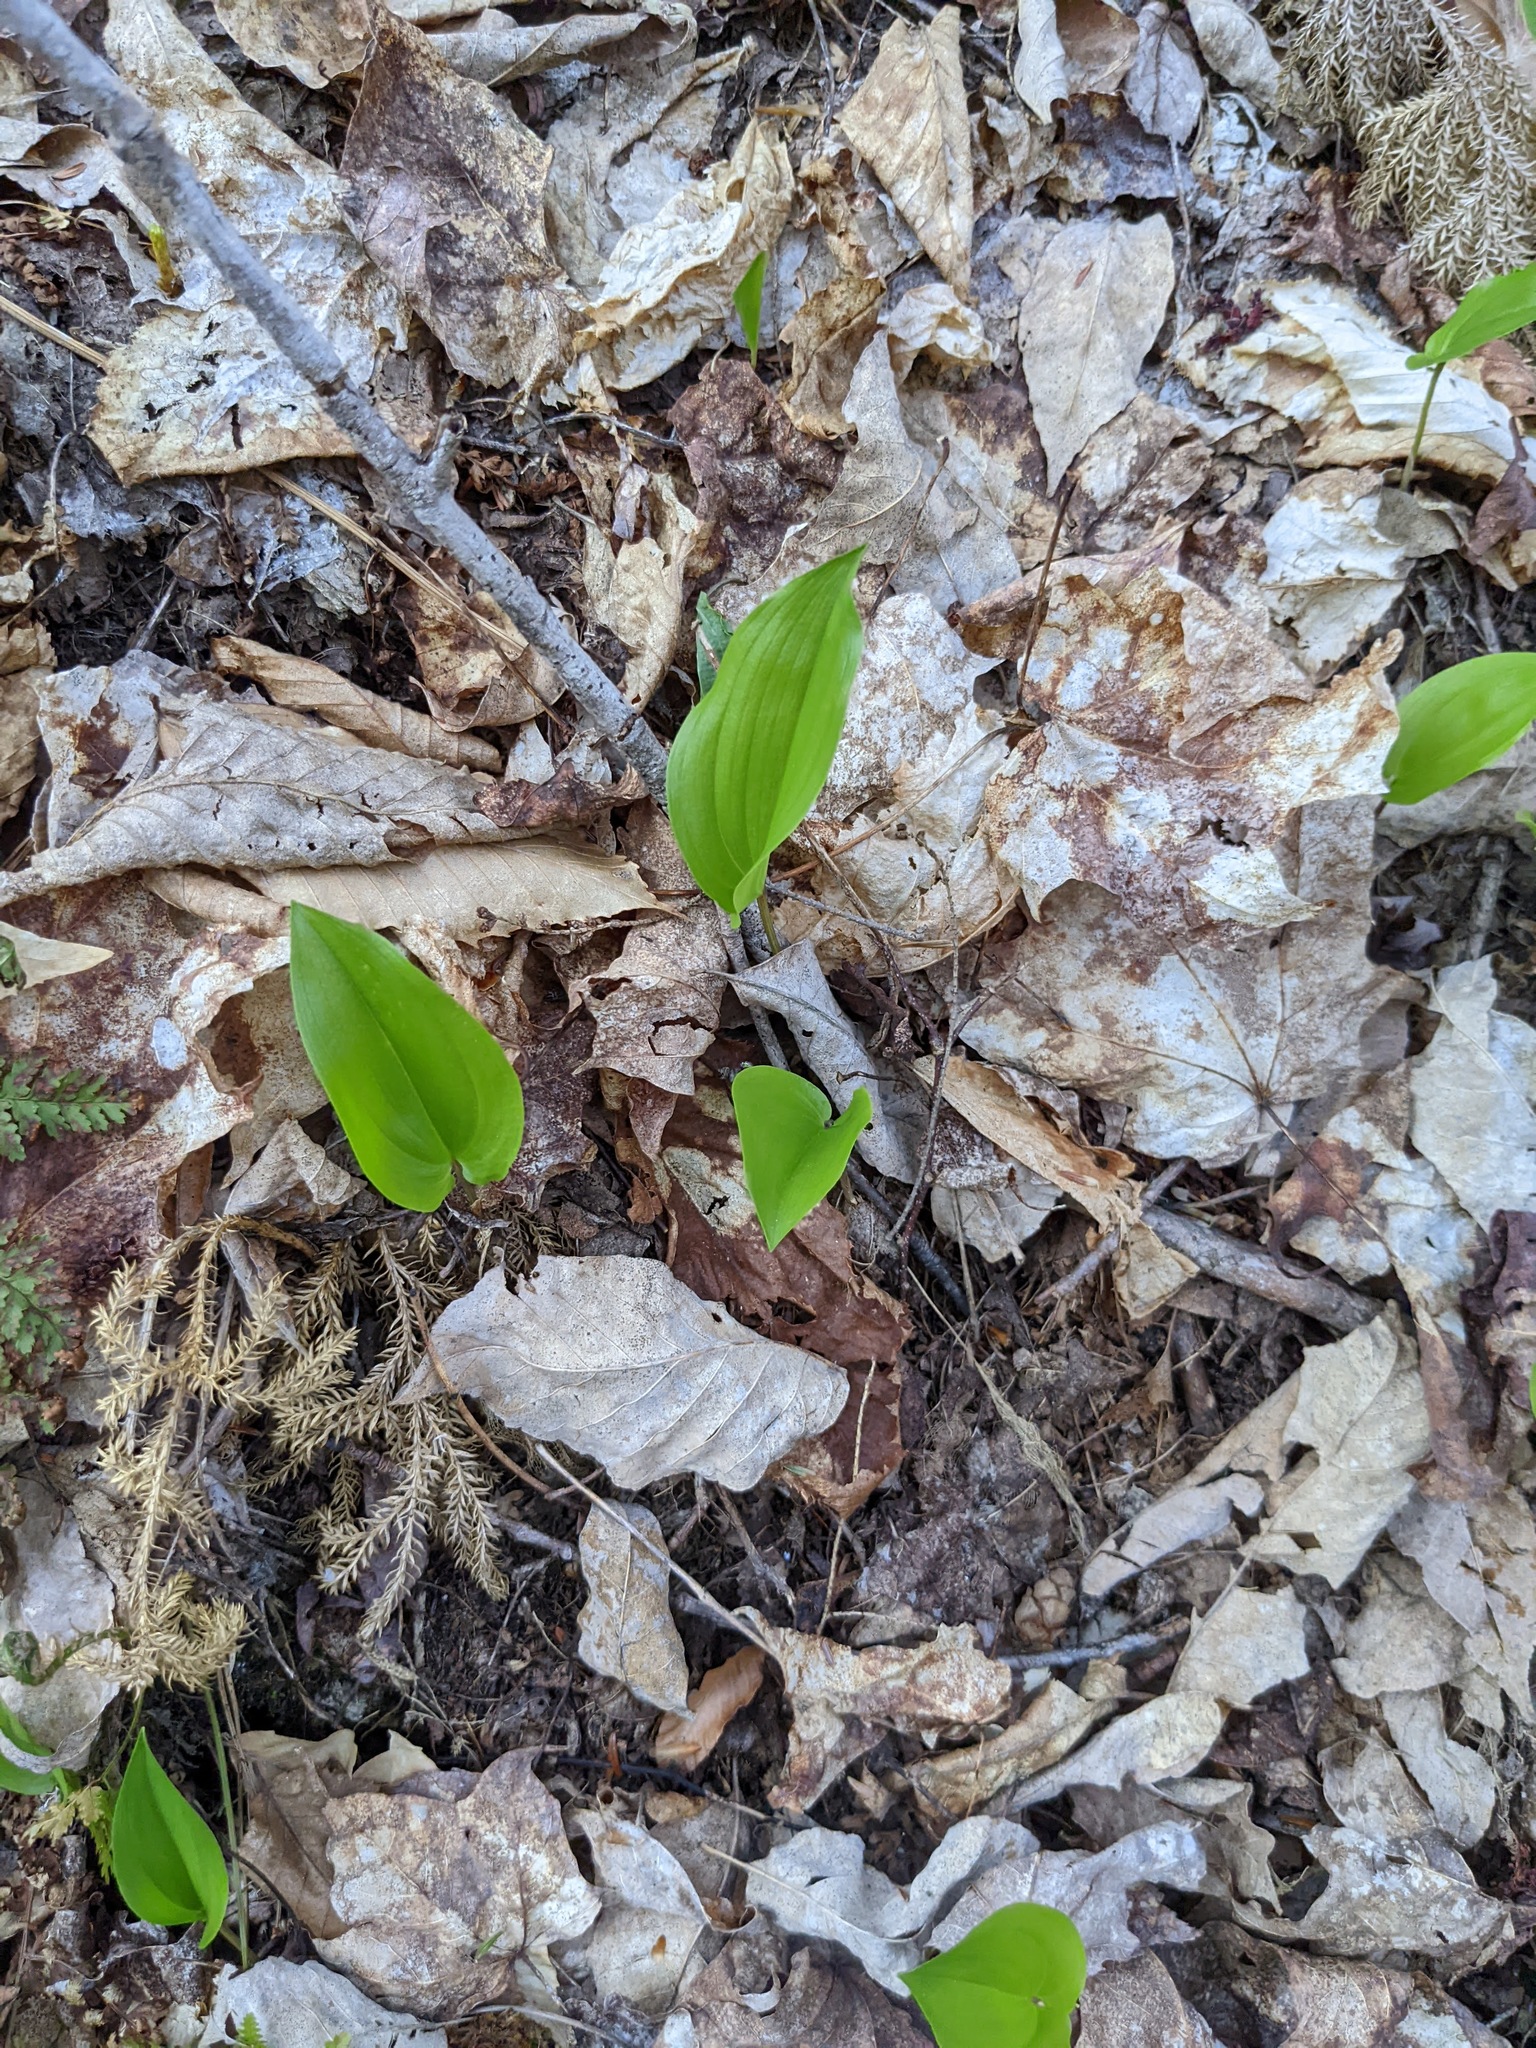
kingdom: Plantae
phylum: Tracheophyta
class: Liliopsida
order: Asparagales
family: Asparagaceae
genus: Maianthemum
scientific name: Maianthemum canadense
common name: False lily-of-the-valley
